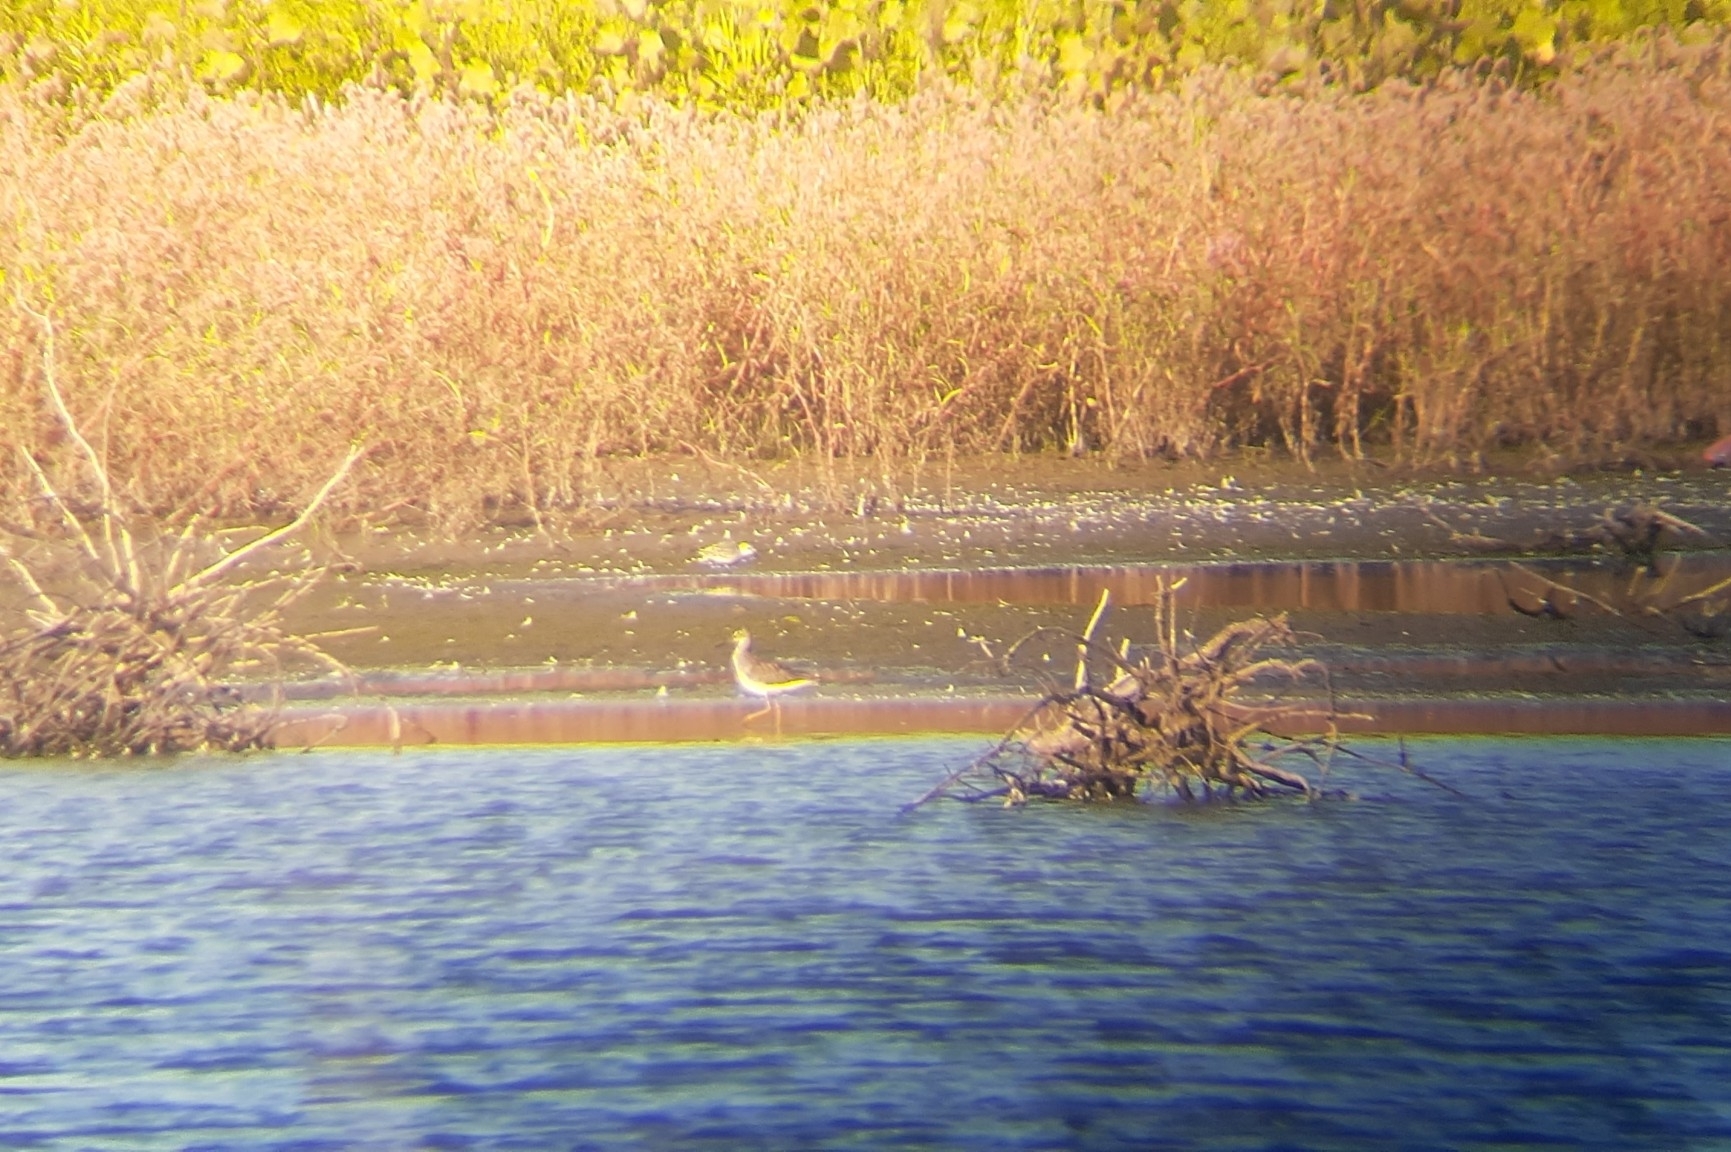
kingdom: Animalia
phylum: Chordata
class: Aves
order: Charadriiformes
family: Scolopacidae
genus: Calidris
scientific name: Calidris alba
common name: Sanderling
